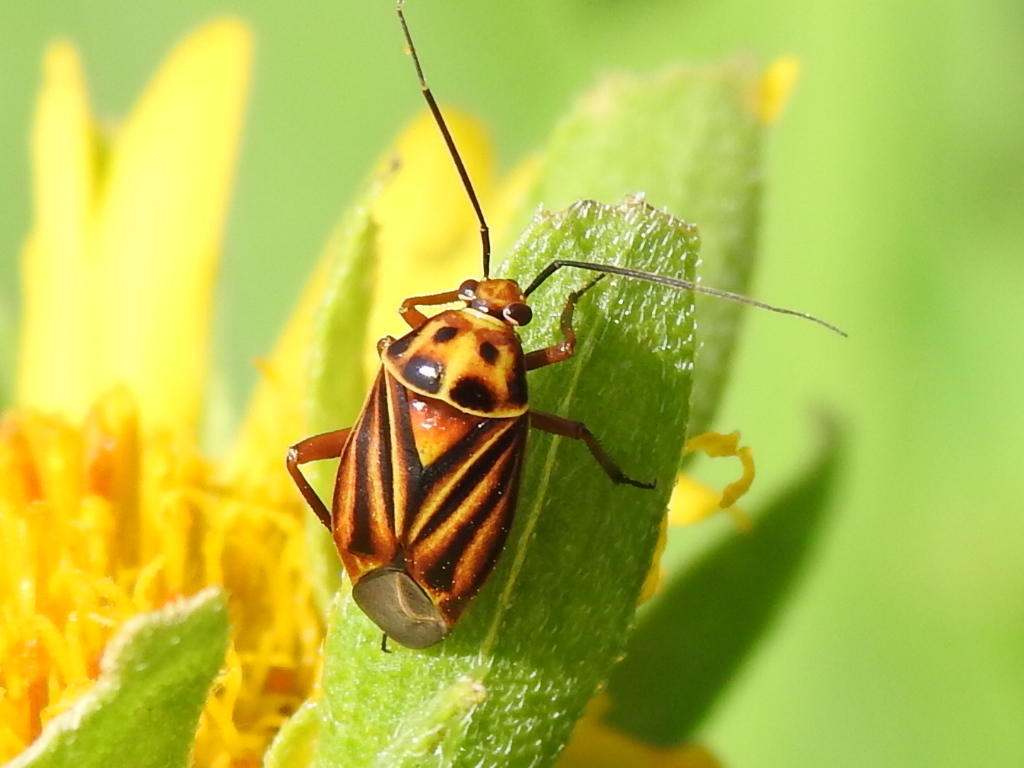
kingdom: Animalia
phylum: Arthropoda
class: Insecta
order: Hemiptera
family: Miridae
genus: Calocoris
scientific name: Calocoris barberi
